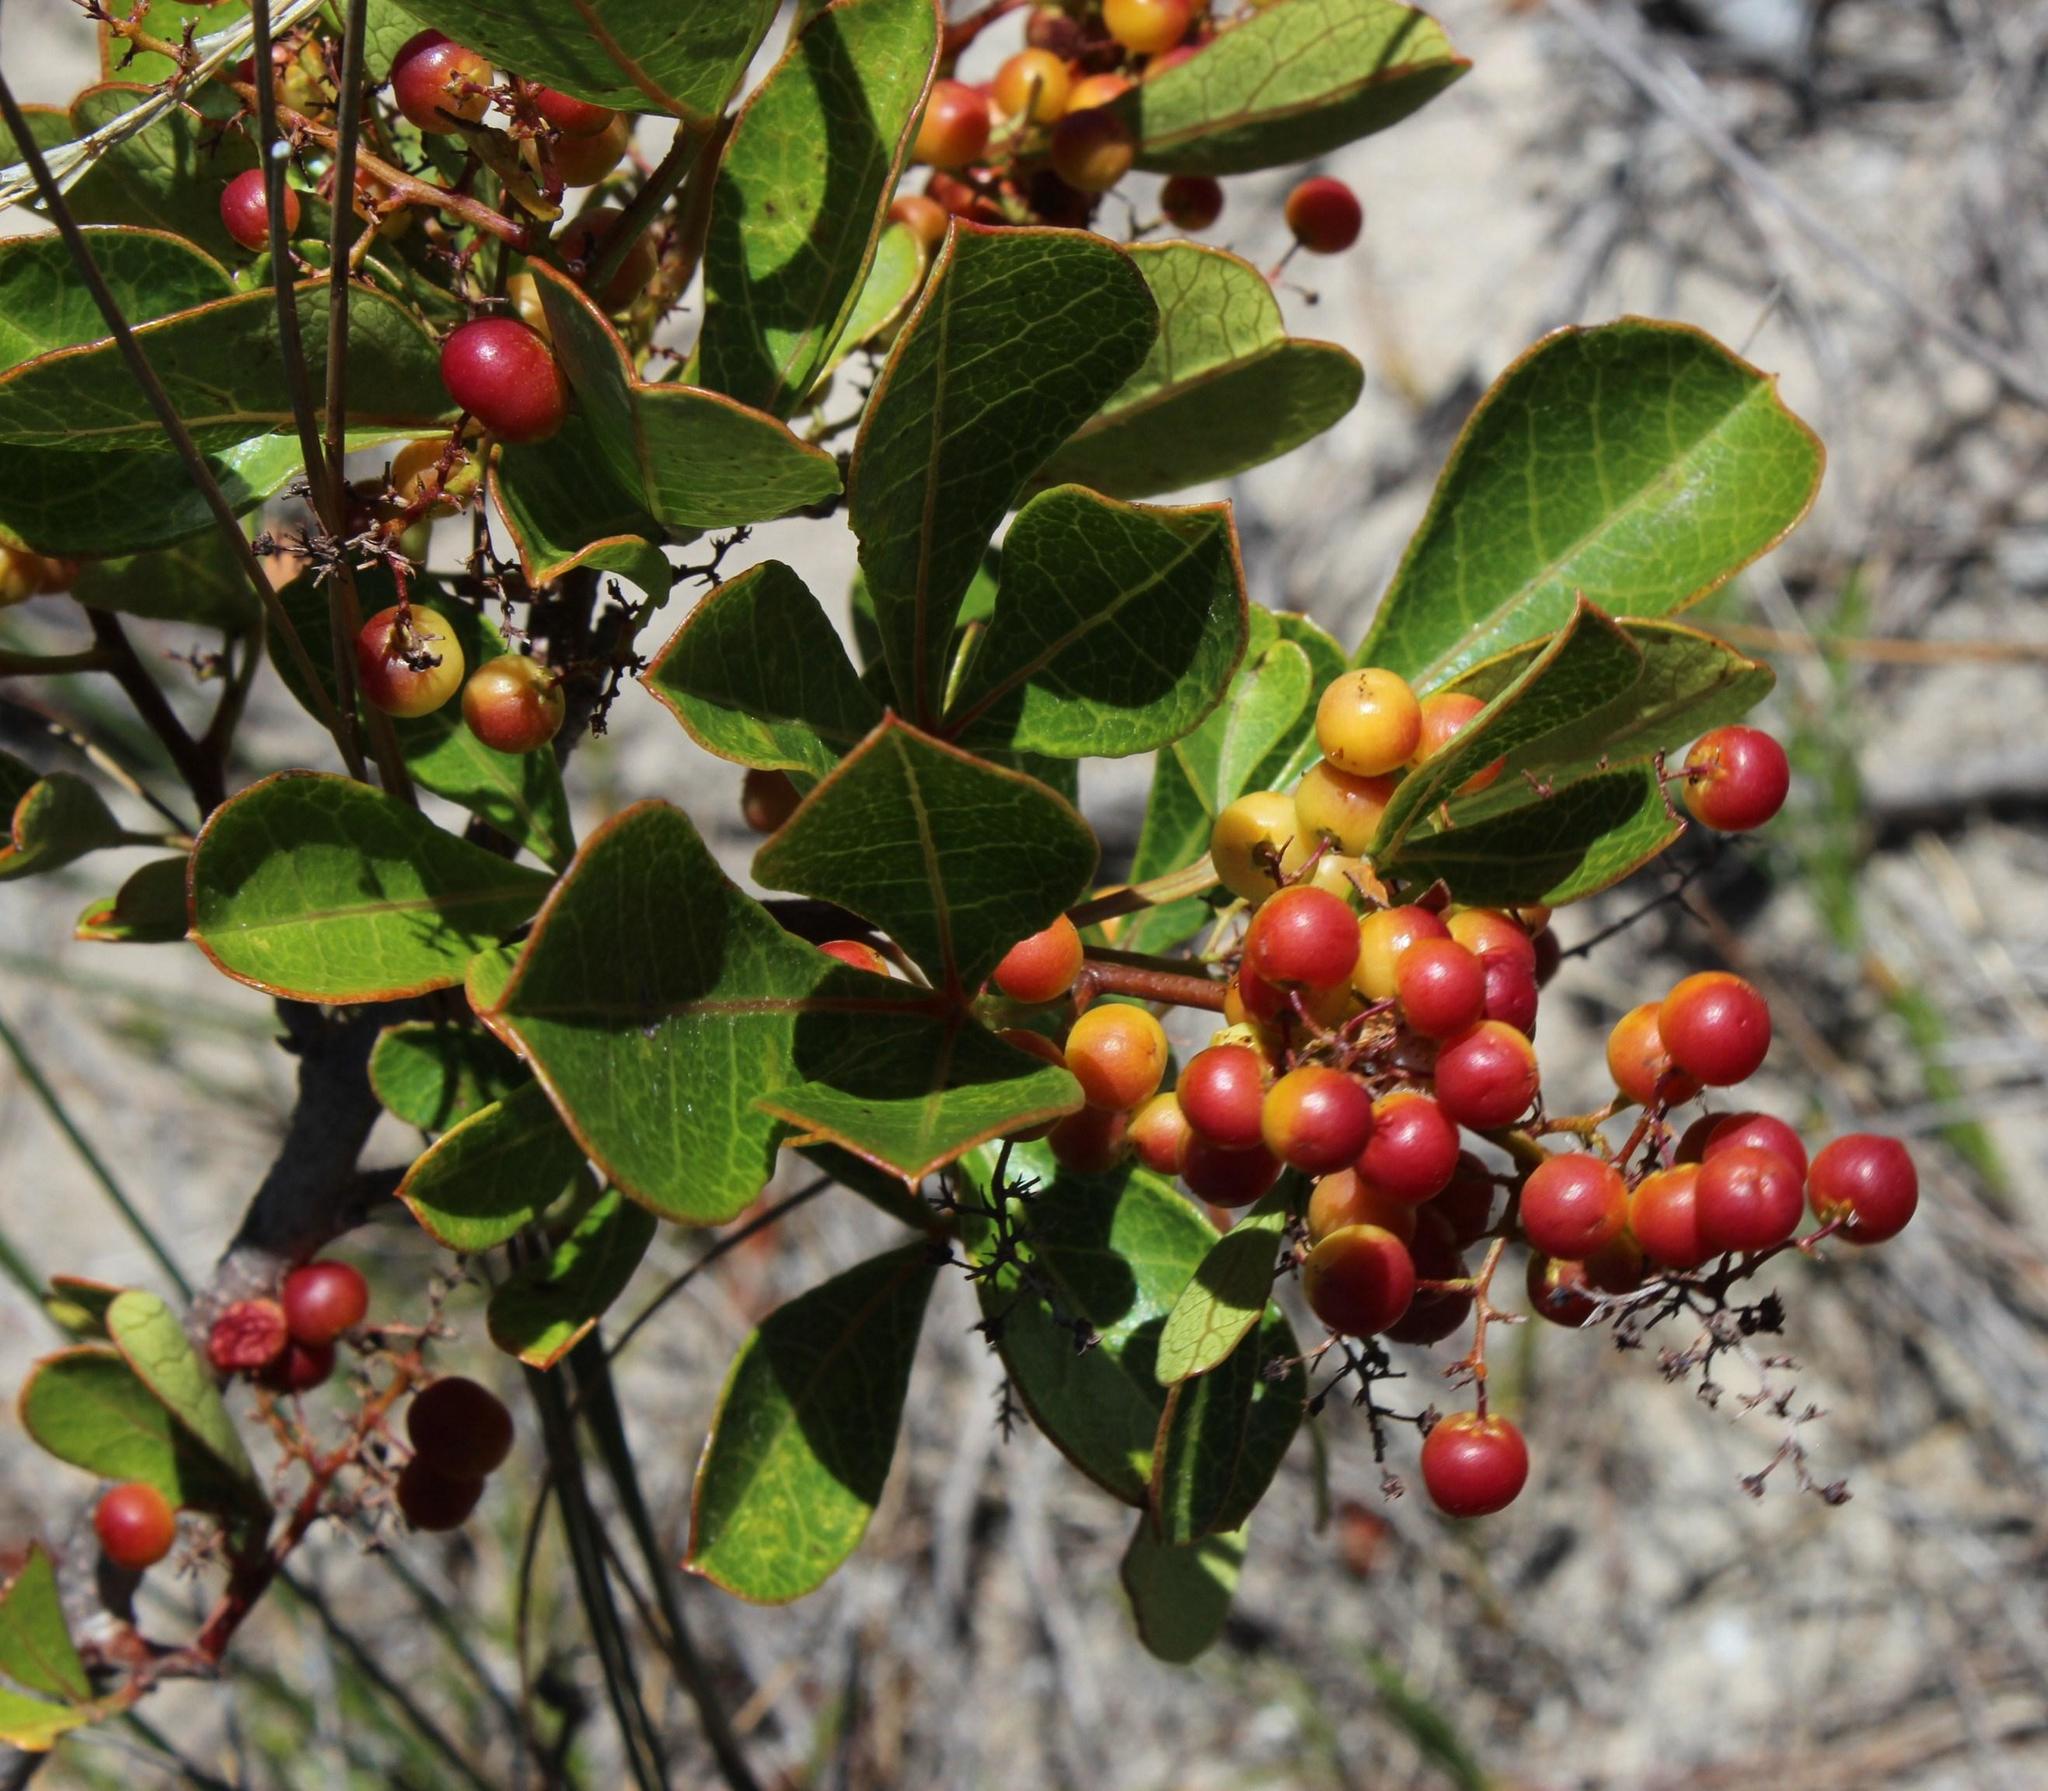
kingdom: Plantae
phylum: Tracheophyta
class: Magnoliopsida
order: Sapindales
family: Anacardiaceae
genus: Searsia
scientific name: Searsia laevigata
